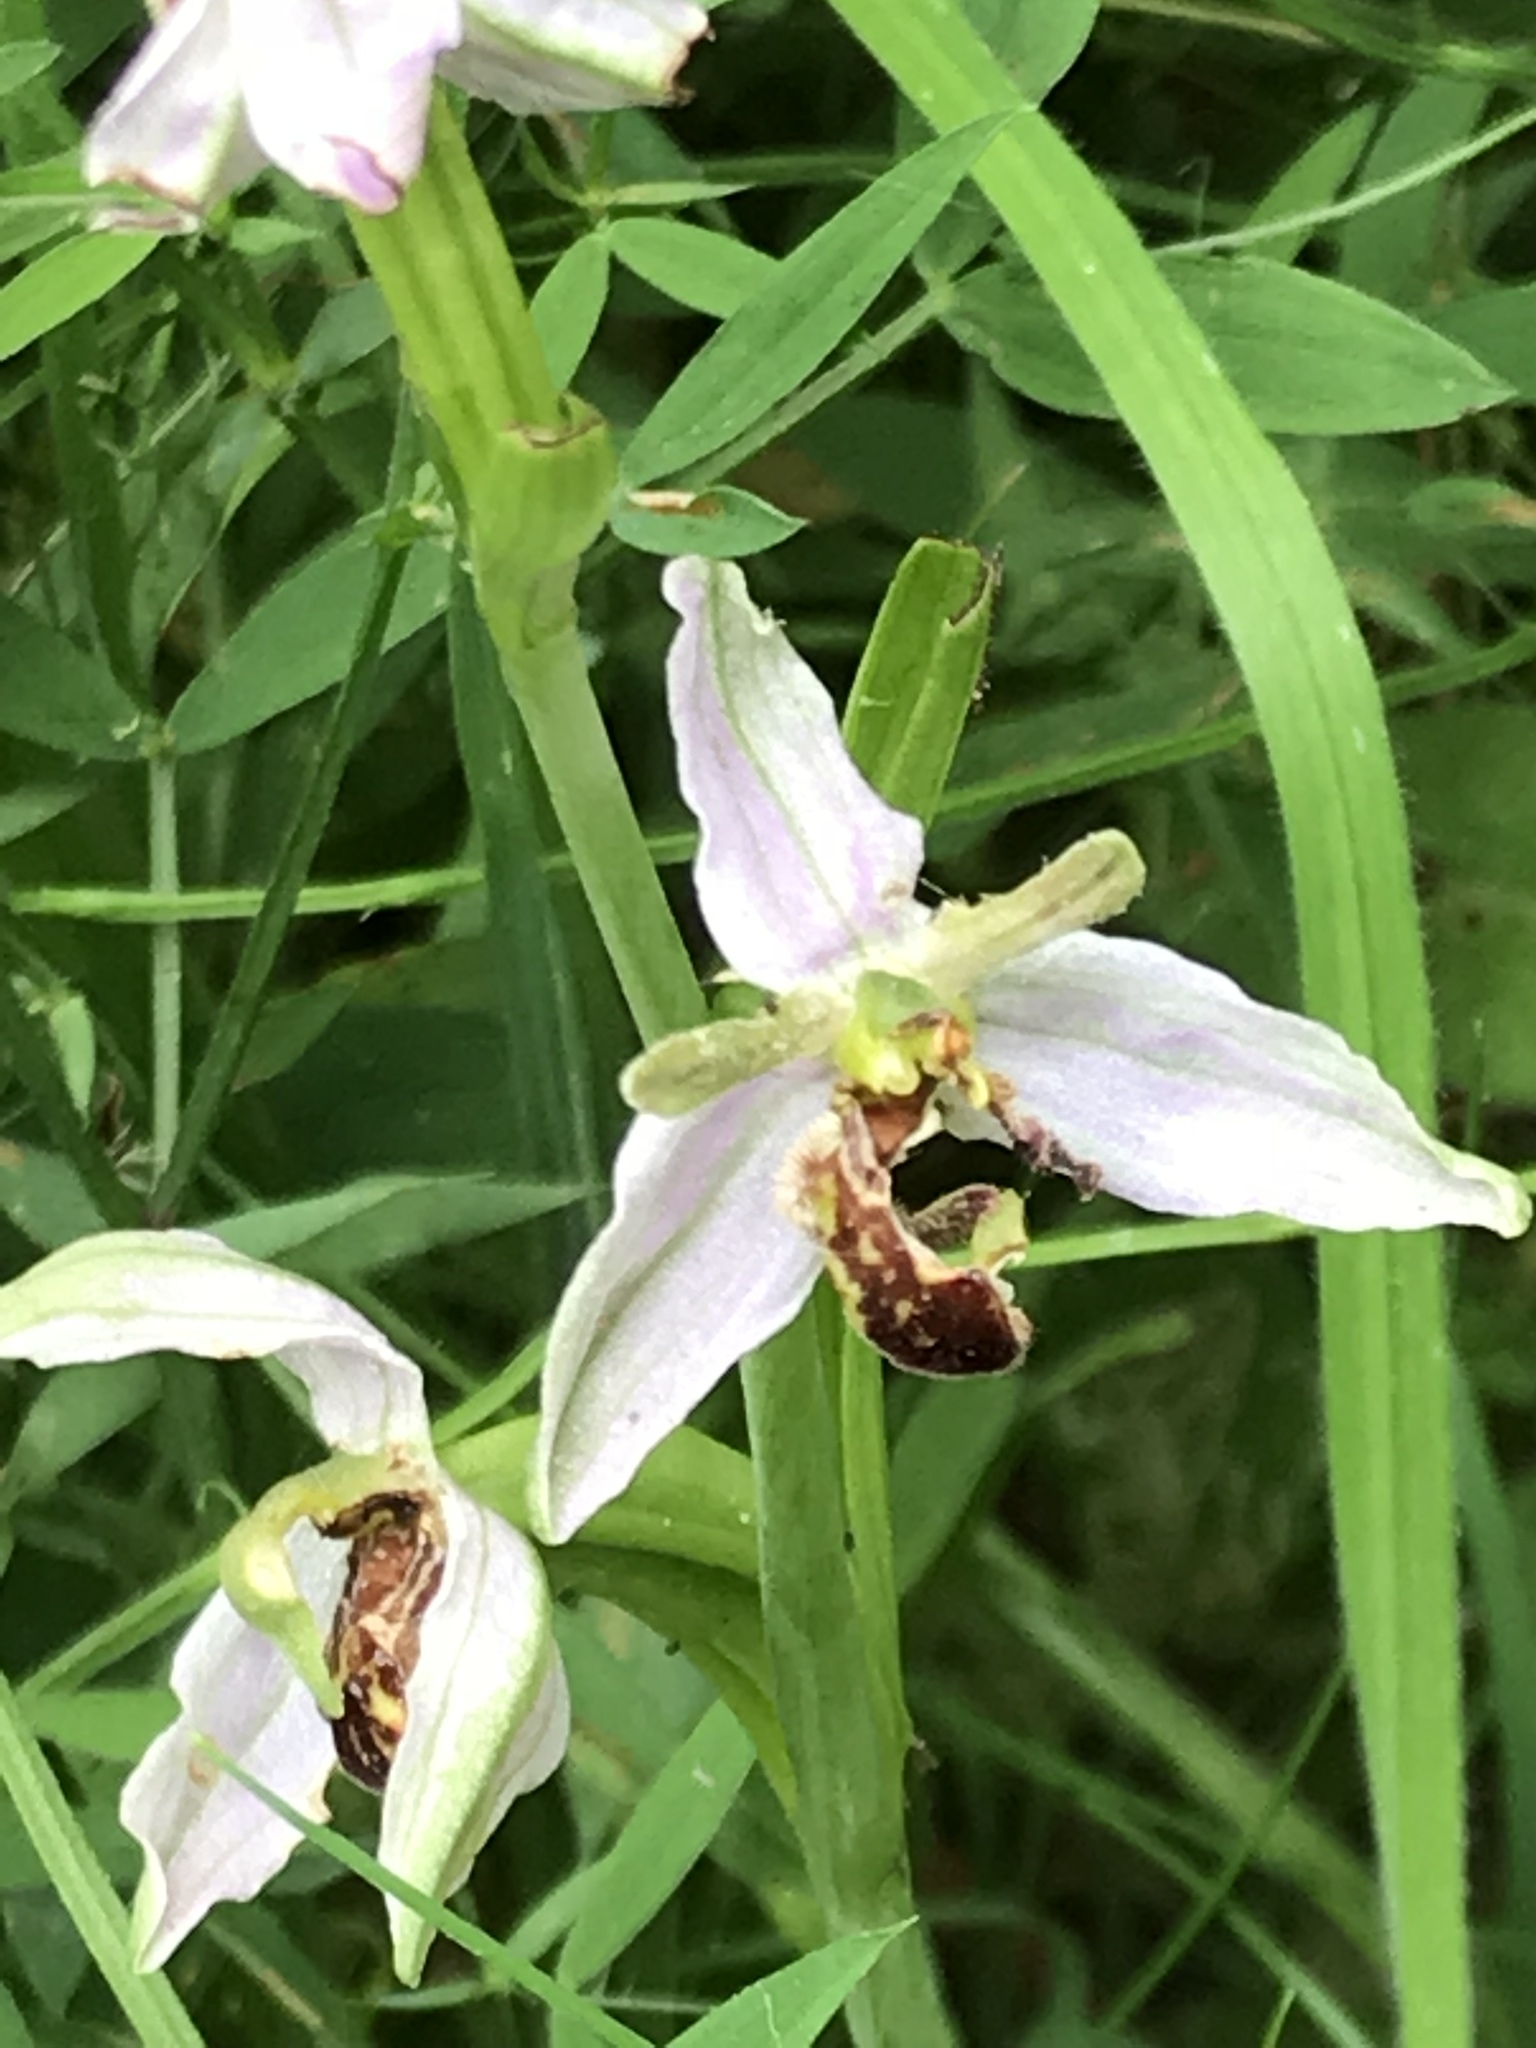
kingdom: Plantae
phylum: Tracheophyta
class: Liliopsida
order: Asparagales
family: Orchidaceae
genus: Ophrys
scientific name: Ophrys apifera
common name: Bee orchid
